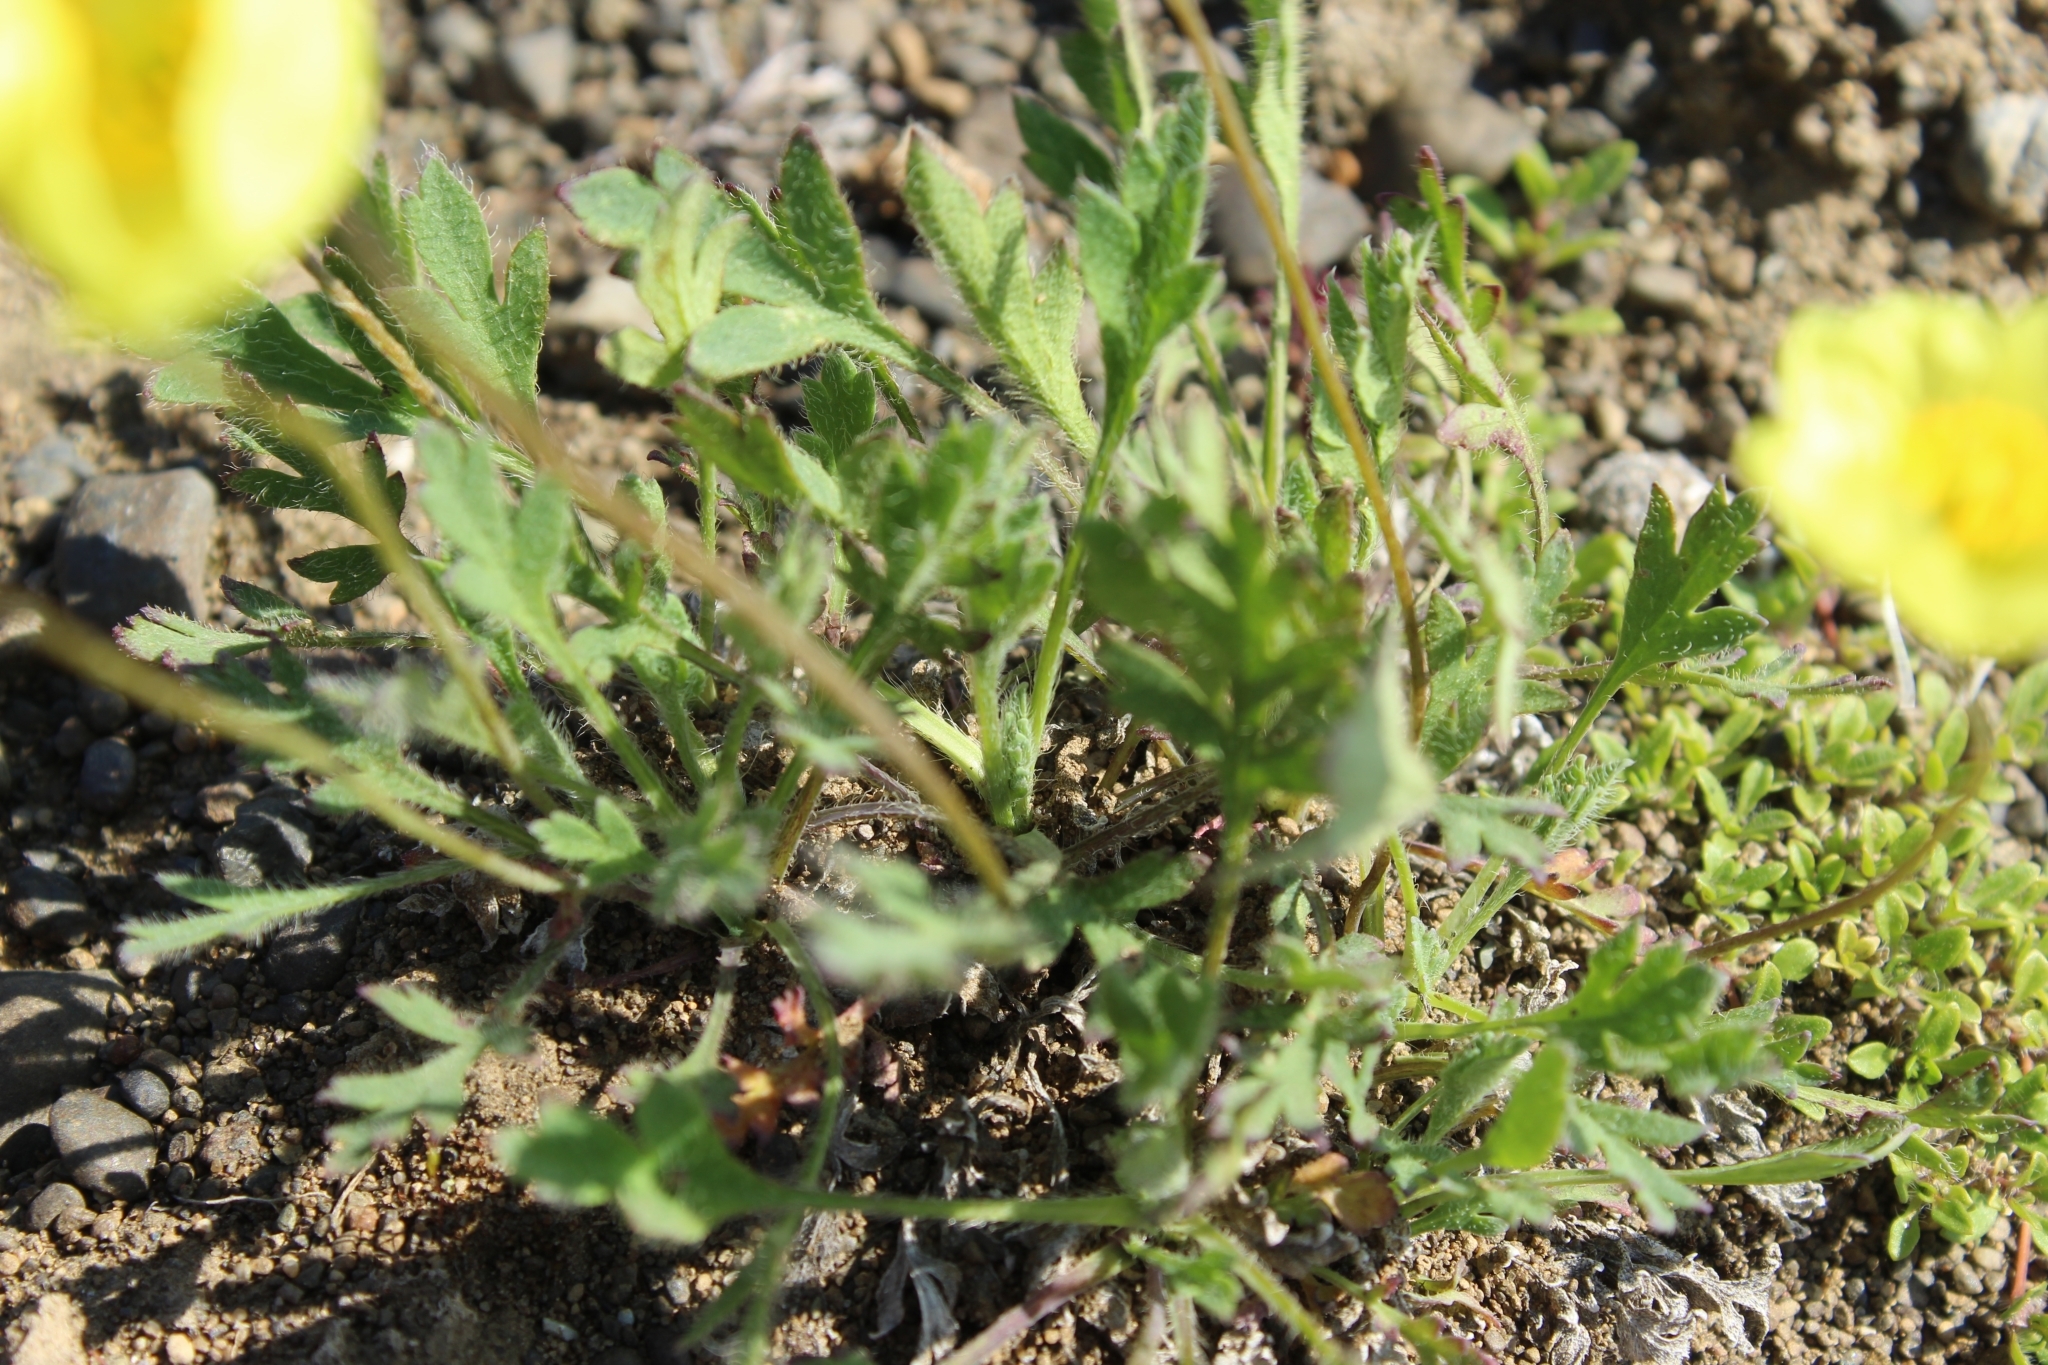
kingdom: Plantae
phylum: Tracheophyta
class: Magnoliopsida
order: Ranunculales
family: Papaveraceae
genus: Papaver
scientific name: Papaver pulvinatum
